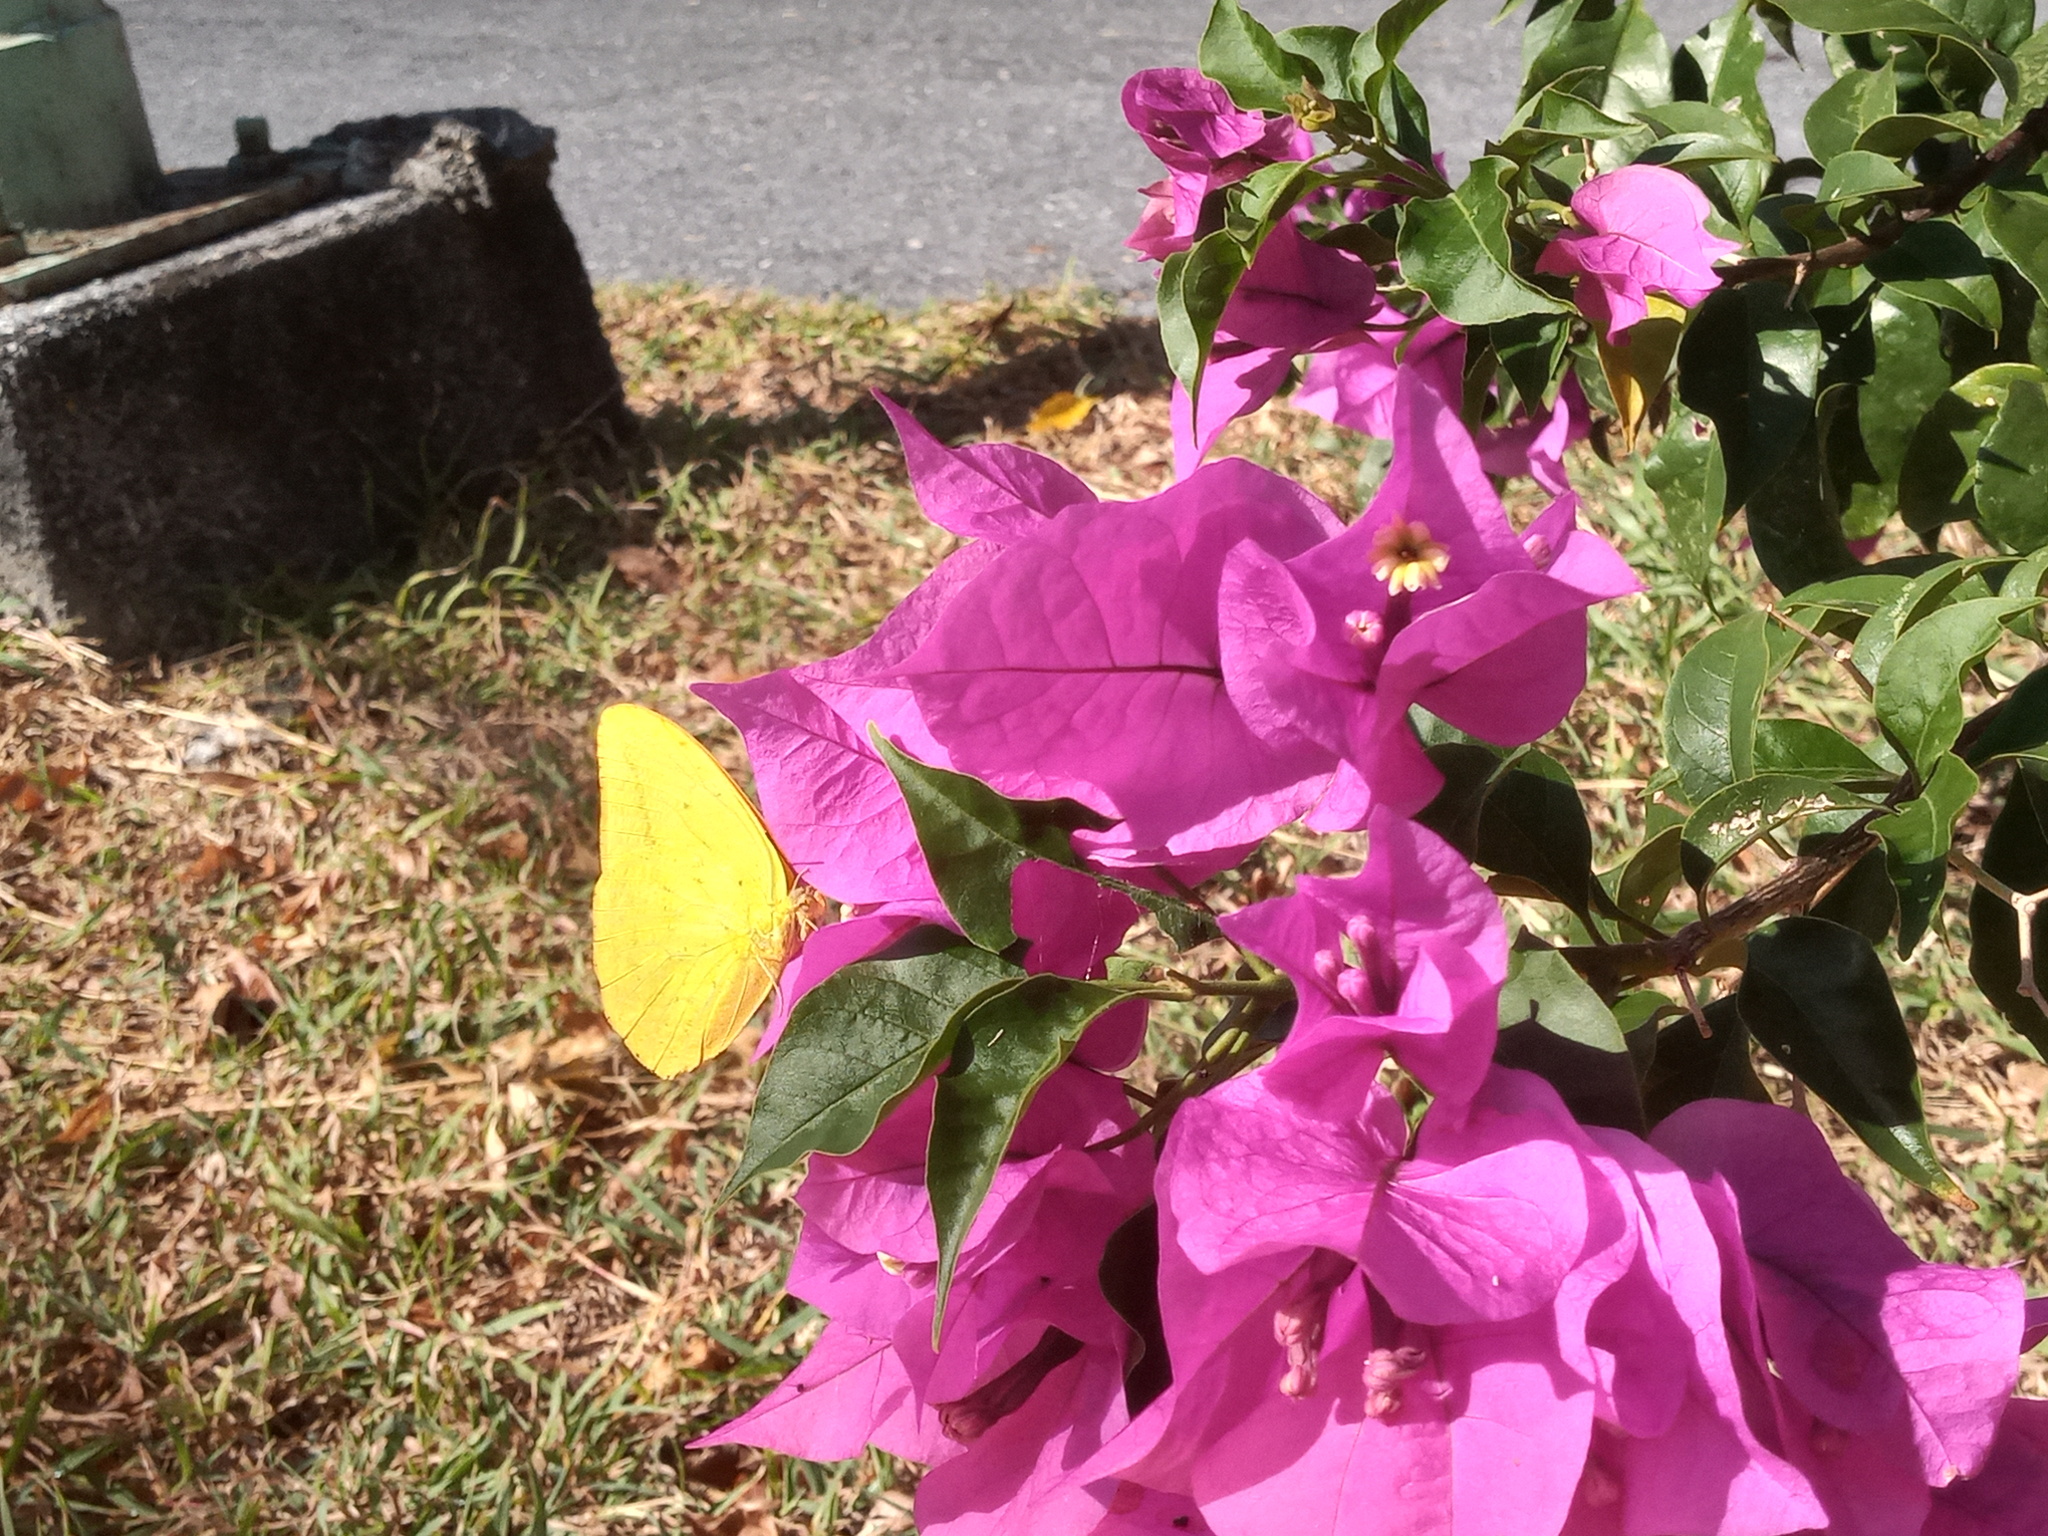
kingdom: Animalia
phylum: Arthropoda
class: Insecta
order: Lepidoptera
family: Pieridae
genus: Phoebis
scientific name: Phoebis agarithe
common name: Large orange sulphur
